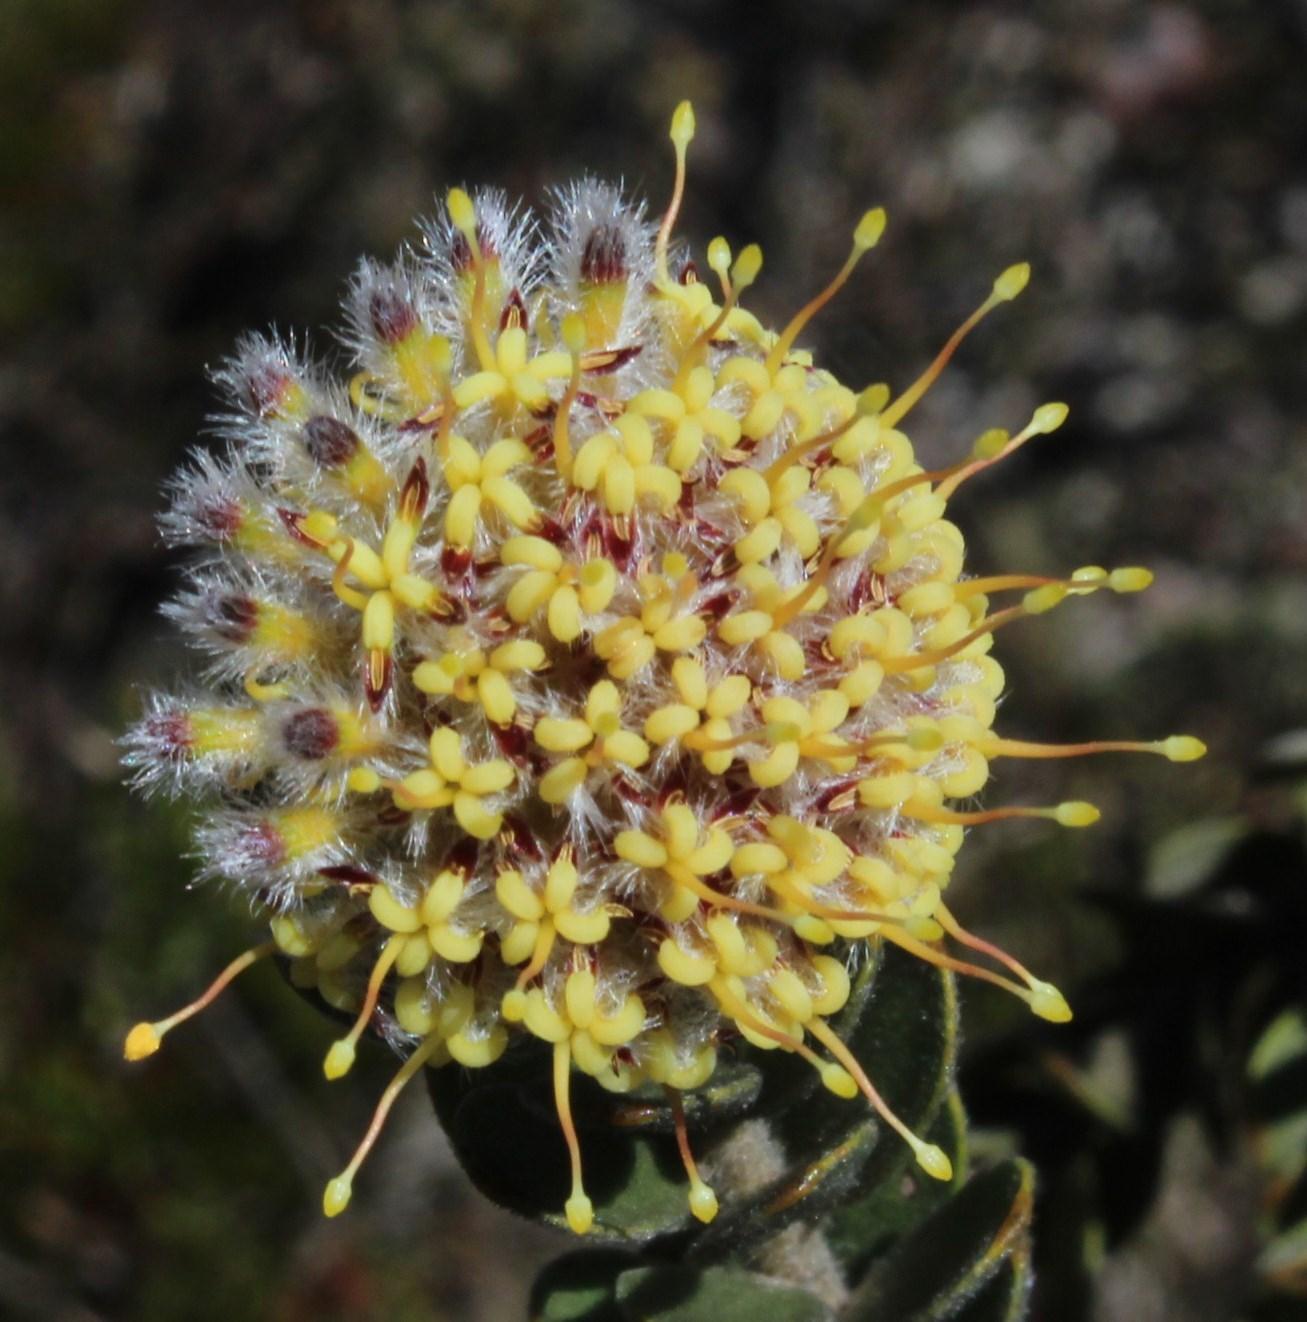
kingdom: Plantae
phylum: Tracheophyta
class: Magnoliopsida
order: Proteales
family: Proteaceae
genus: Leucospermum
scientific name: Leucospermum truncatulum
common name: Oval-leaf pincushion
